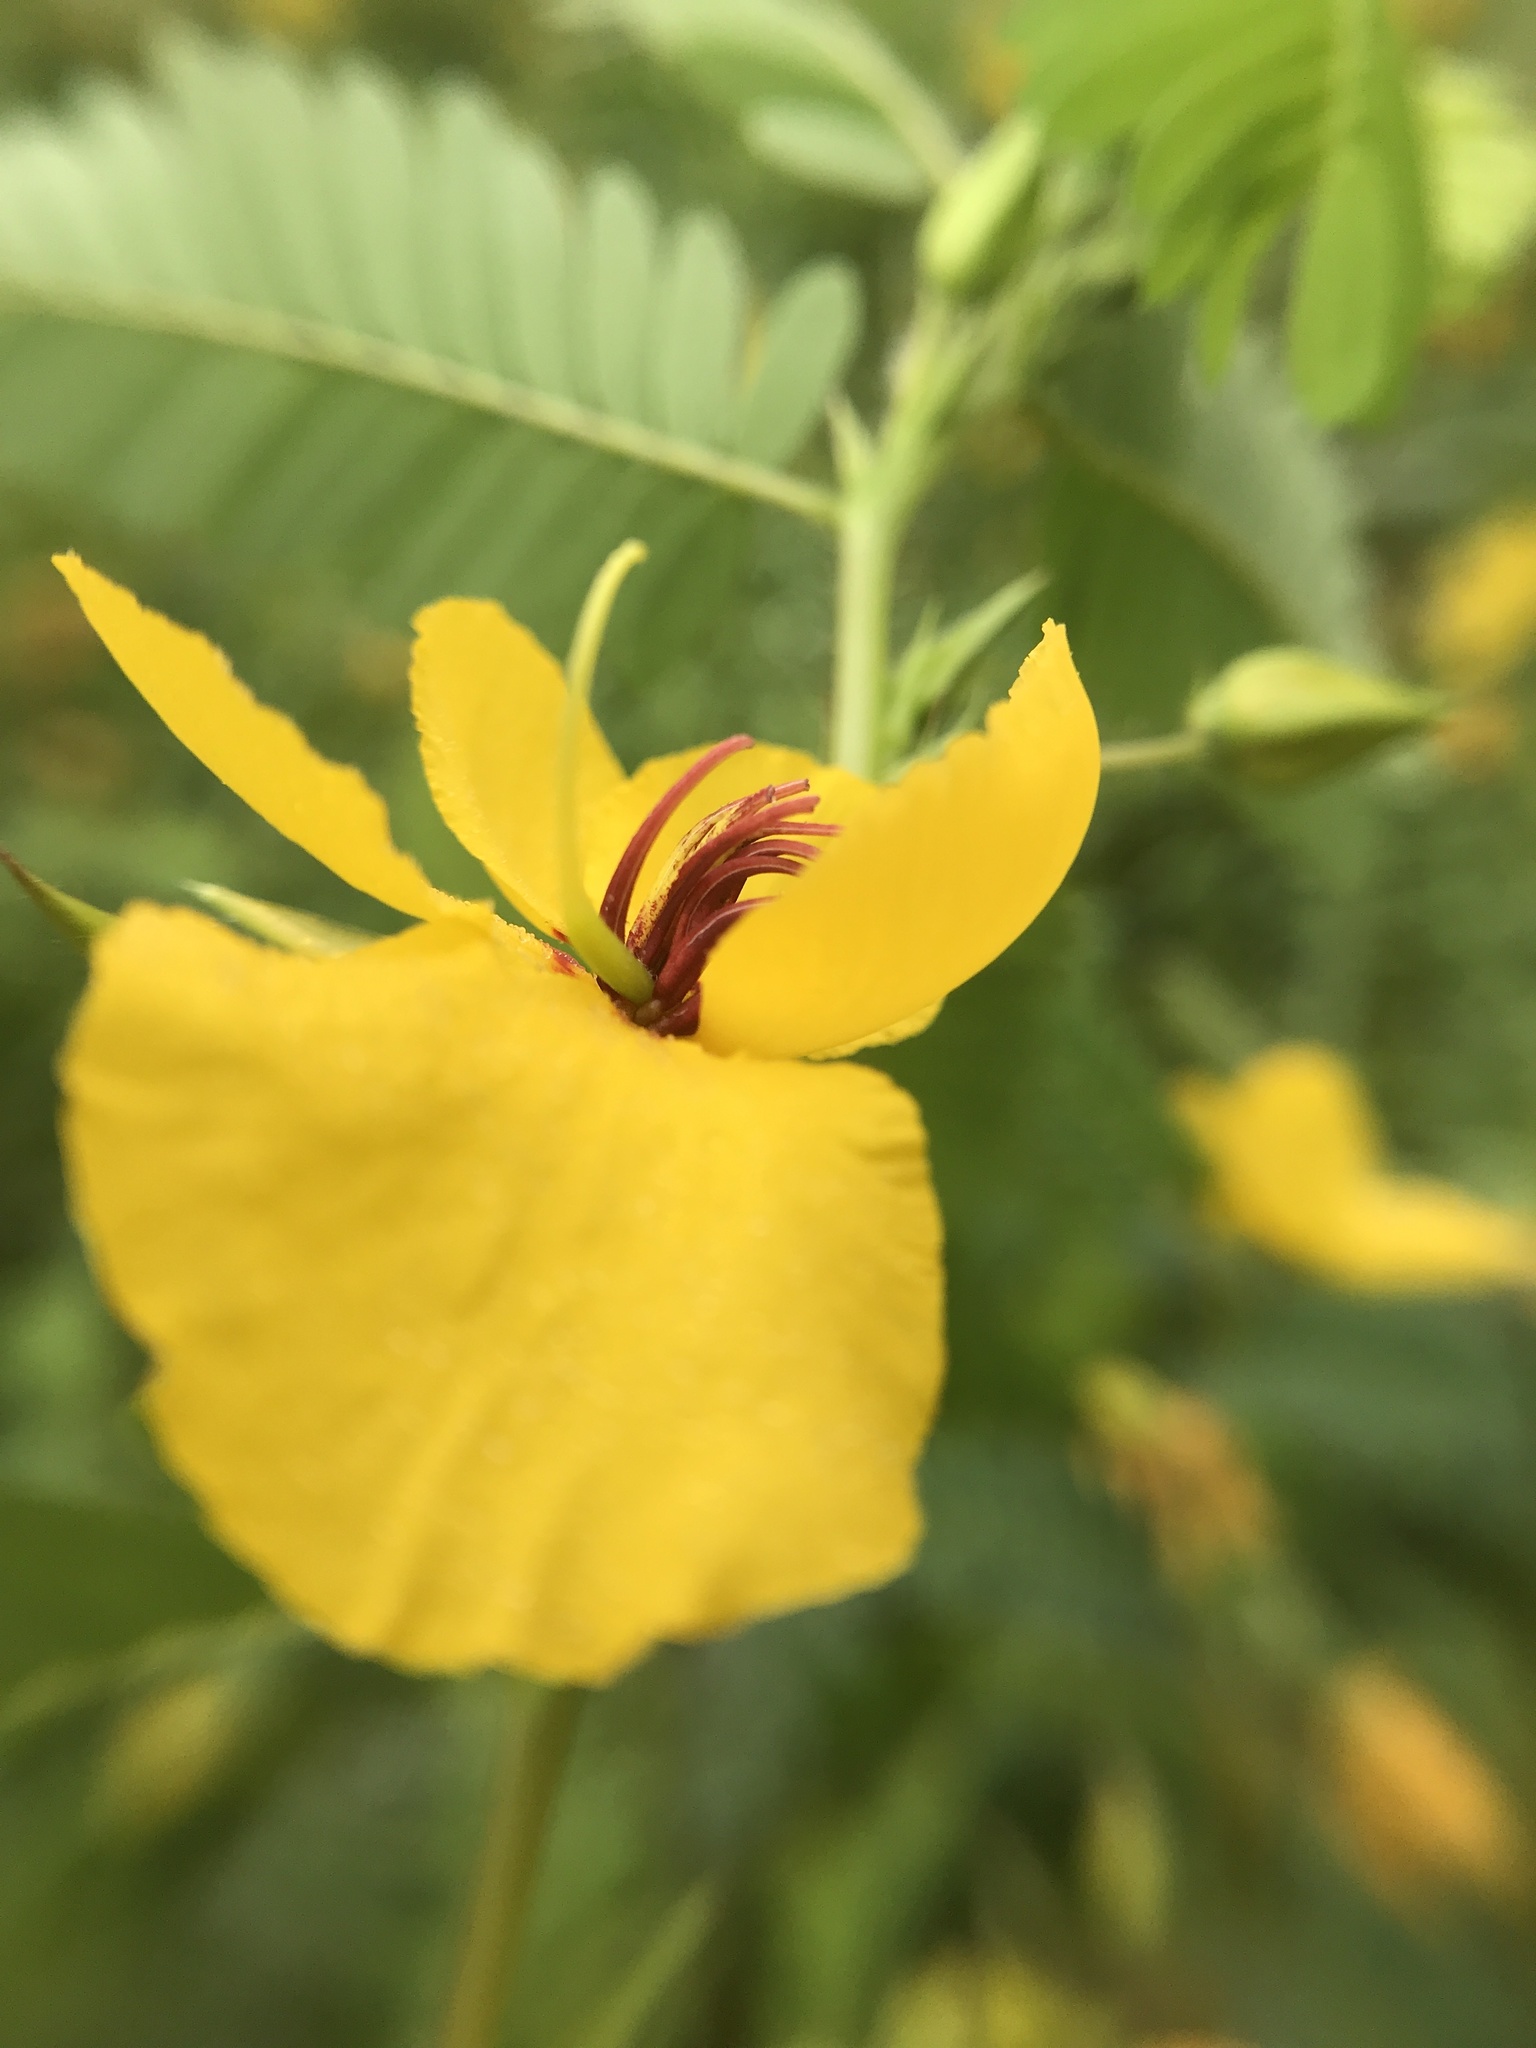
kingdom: Plantae
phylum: Tracheophyta
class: Magnoliopsida
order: Fabales
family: Fabaceae
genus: Chamaecrista
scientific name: Chamaecrista fasciculata
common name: Golden cassia
